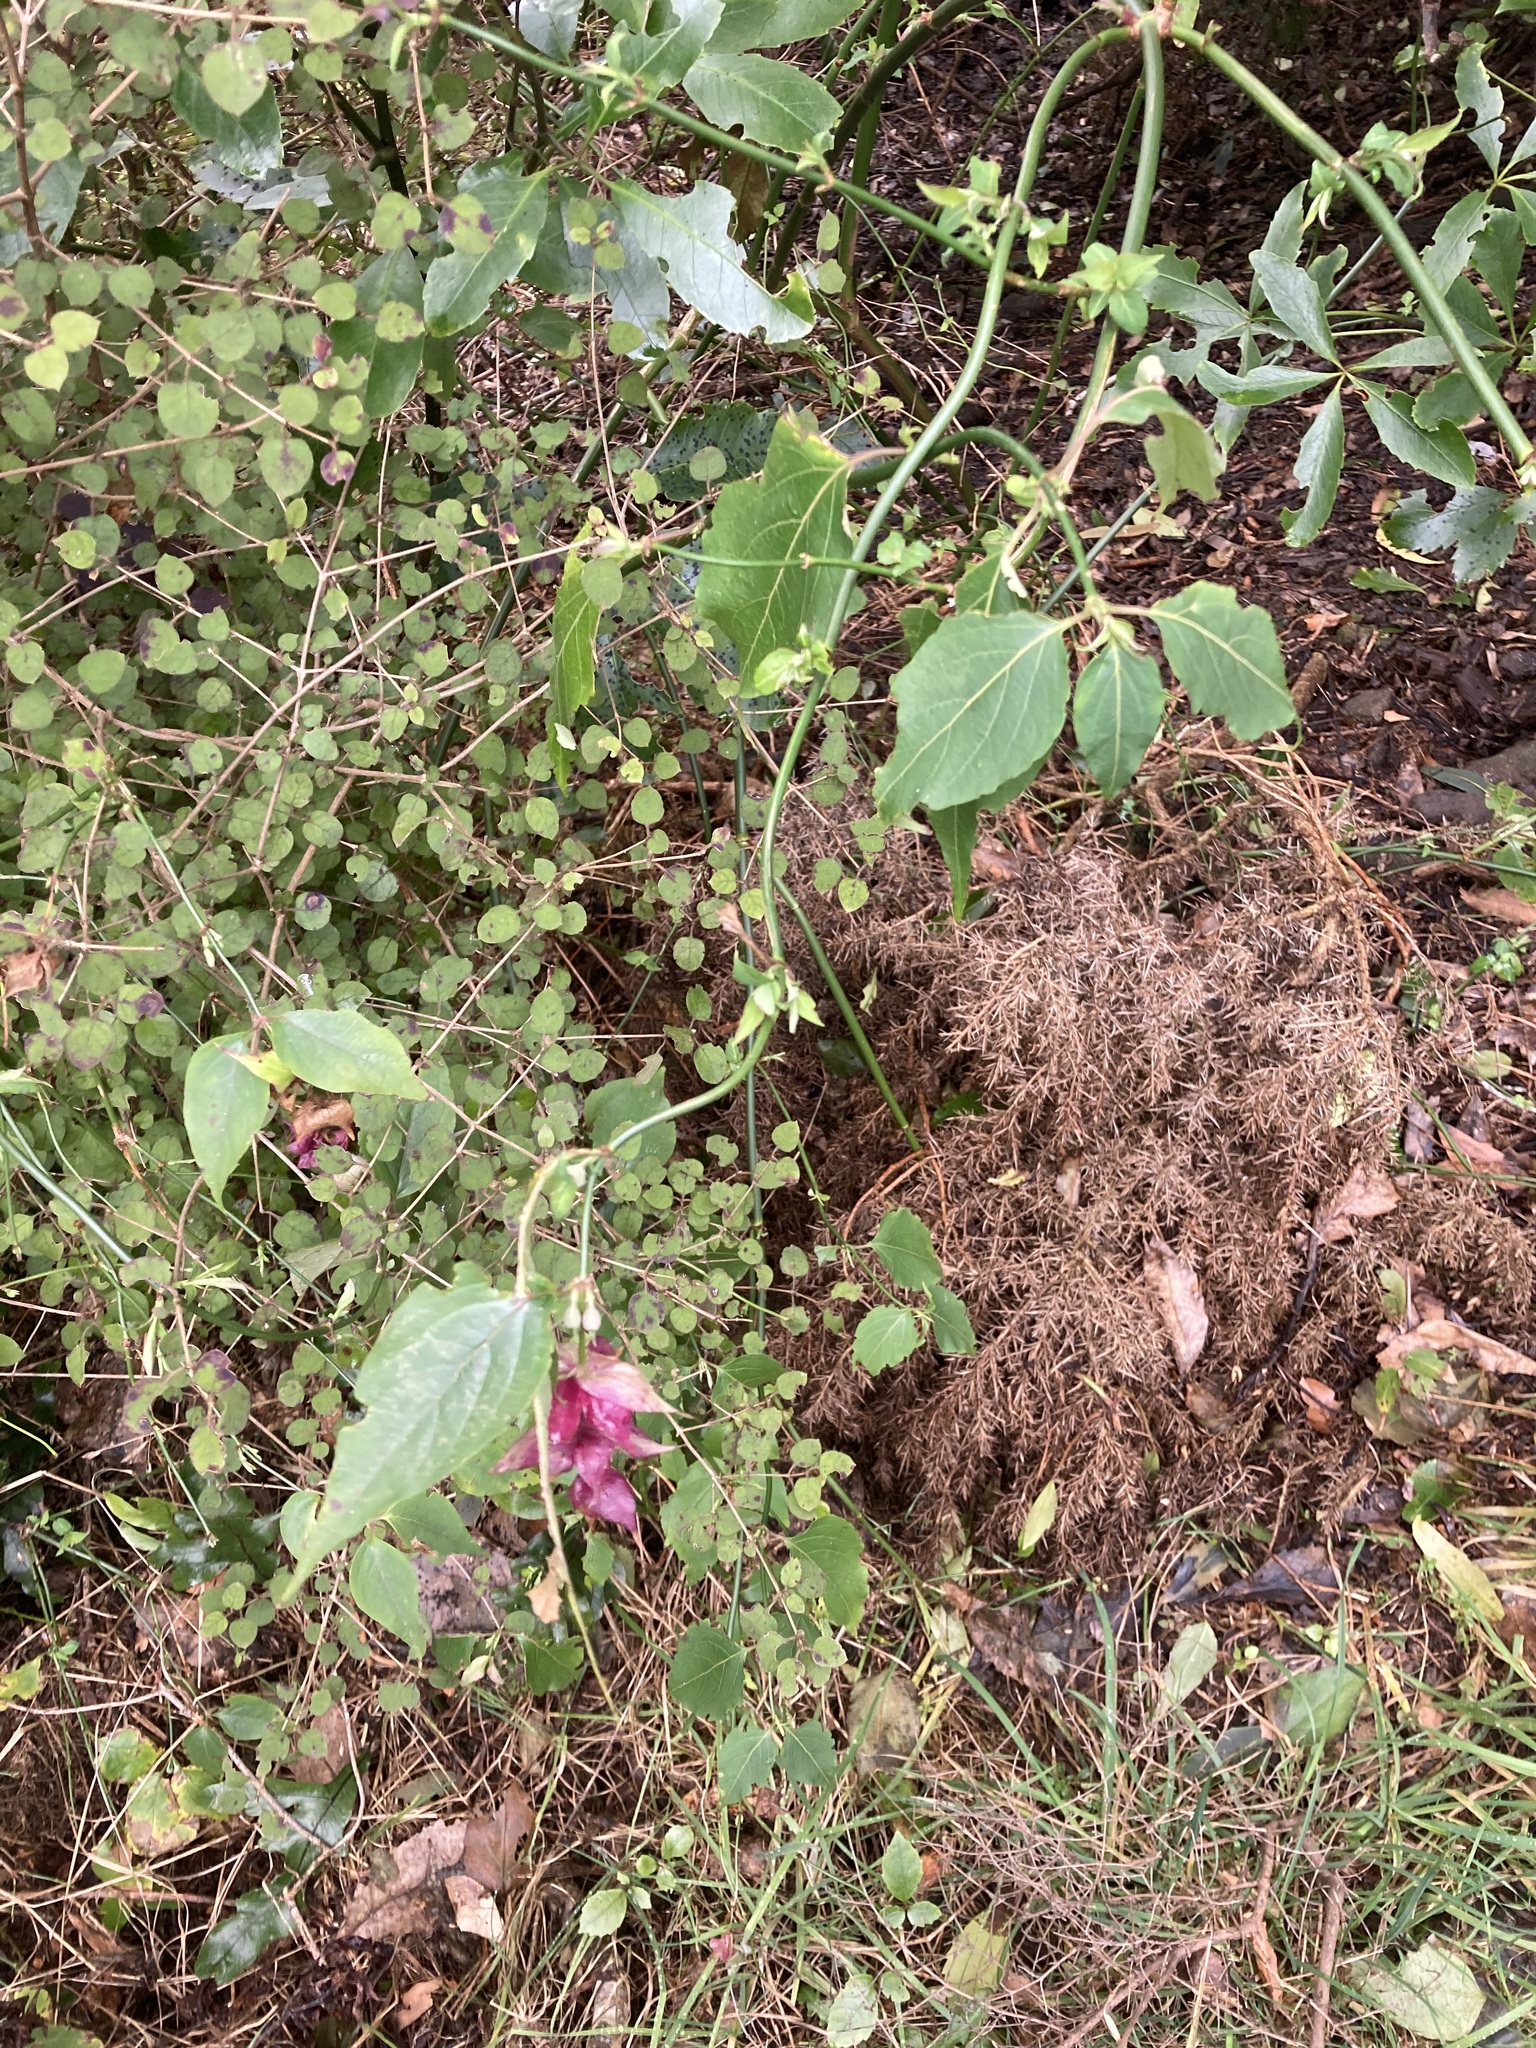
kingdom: Plantae
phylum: Tracheophyta
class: Magnoliopsida
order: Dipsacales
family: Caprifoliaceae
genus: Leycesteria
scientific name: Leycesteria formosa
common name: Himalayan honeysuckle
